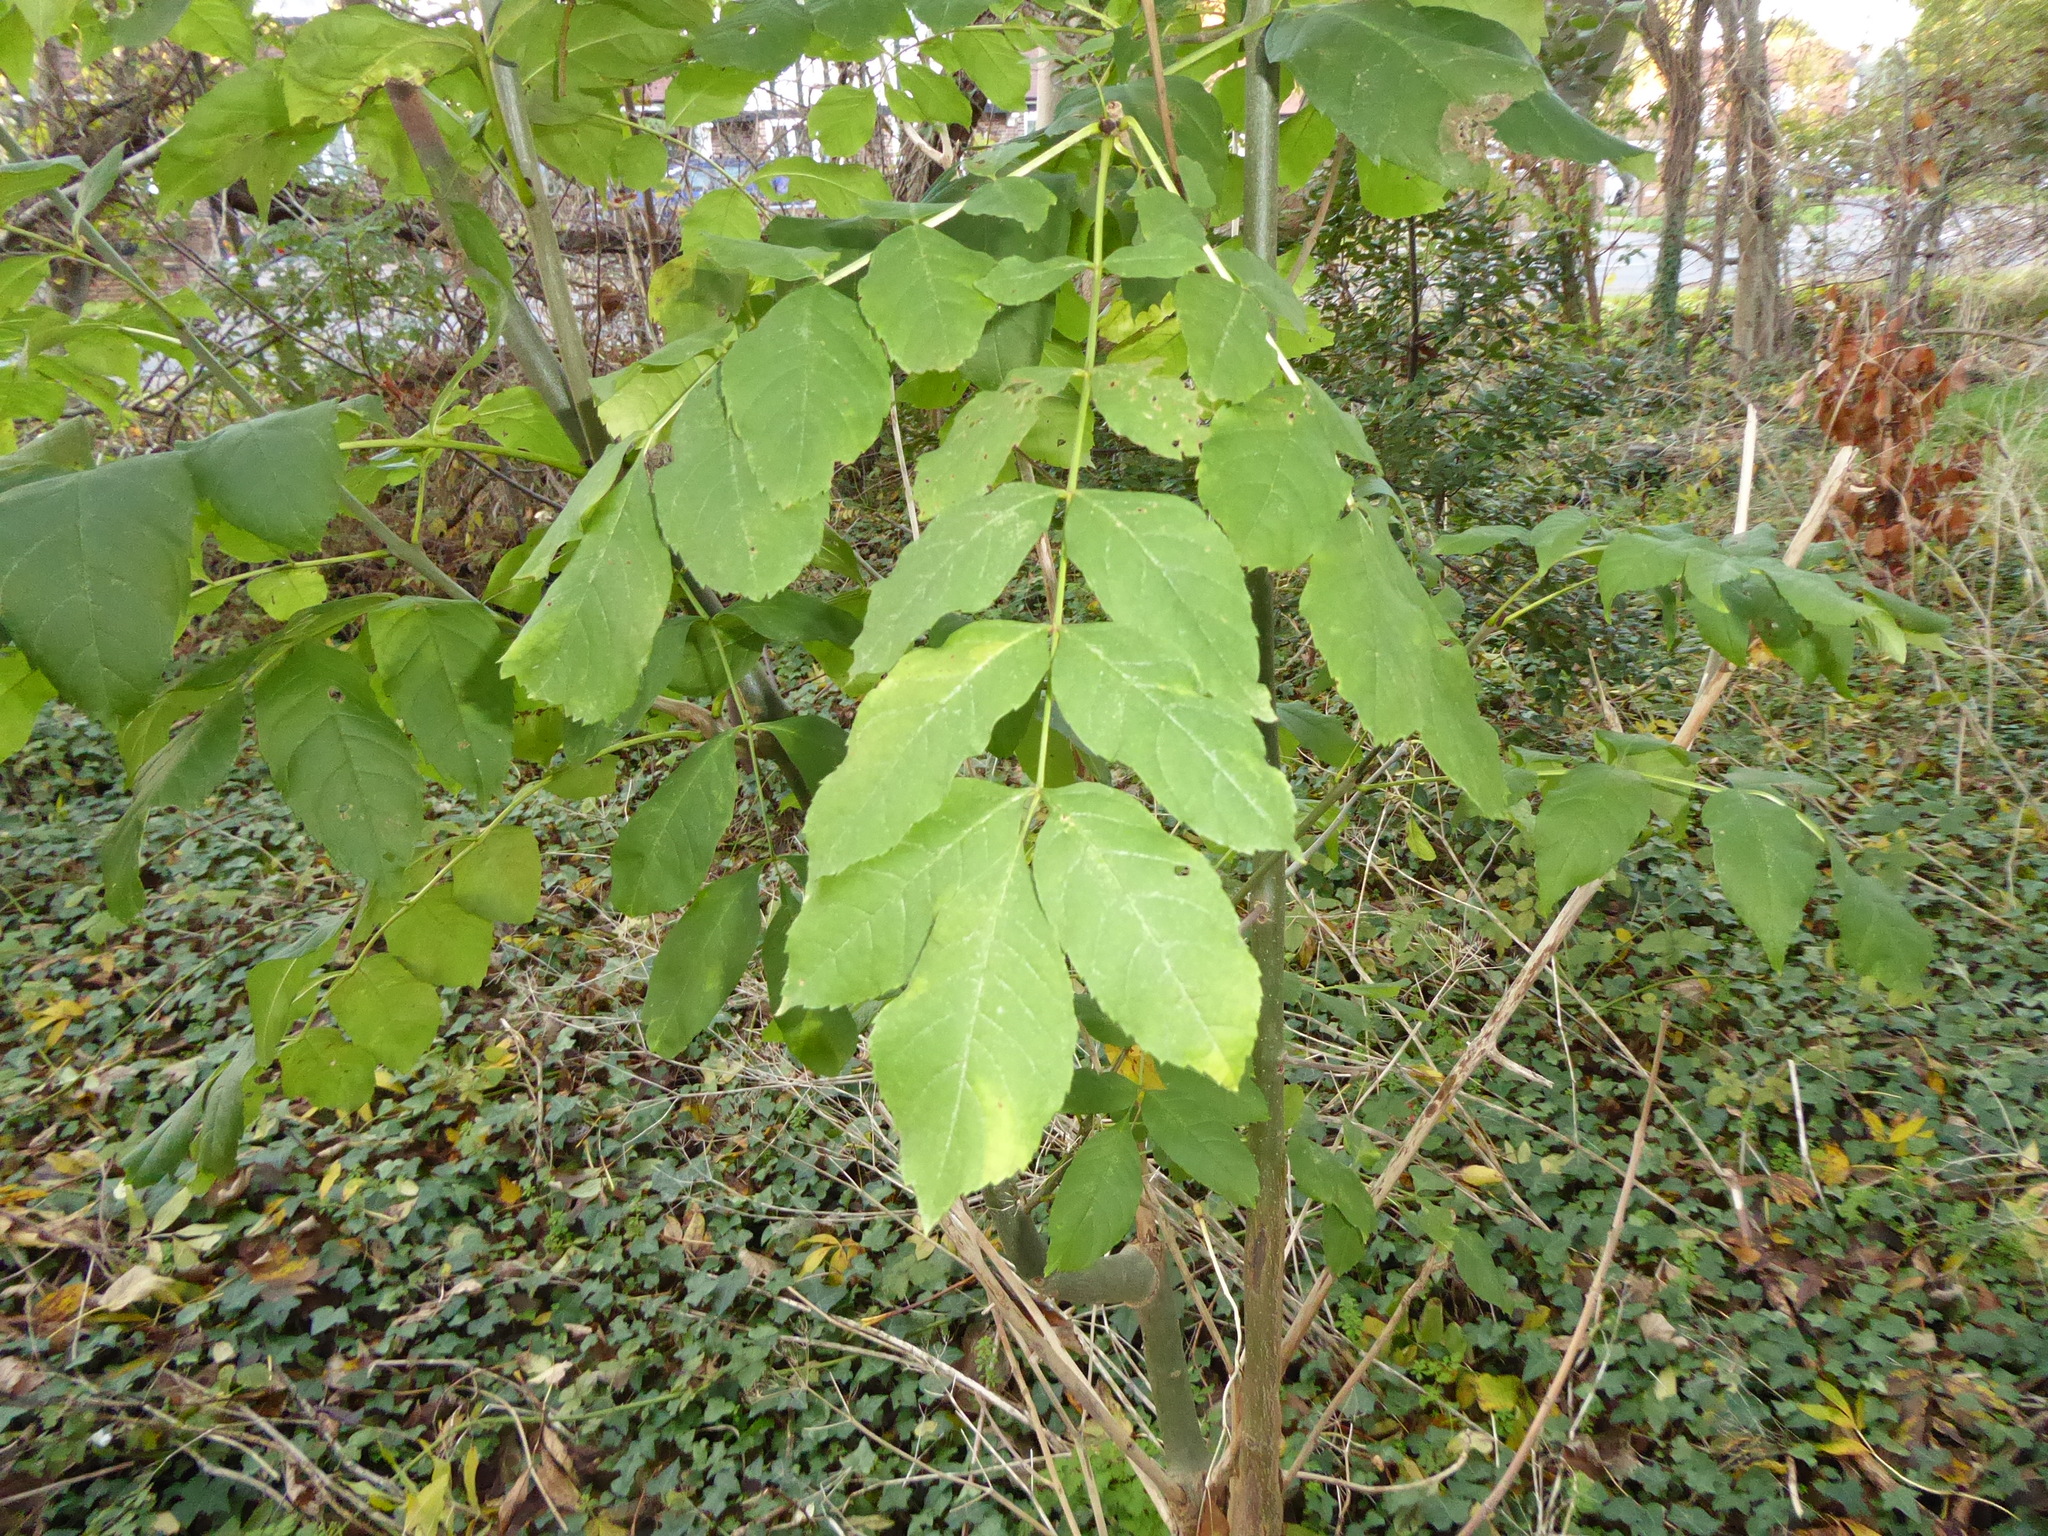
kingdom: Plantae
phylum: Tracheophyta
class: Magnoliopsida
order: Lamiales
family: Oleaceae
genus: Fraxinus
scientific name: Fraxinus excelsior
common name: European ash
